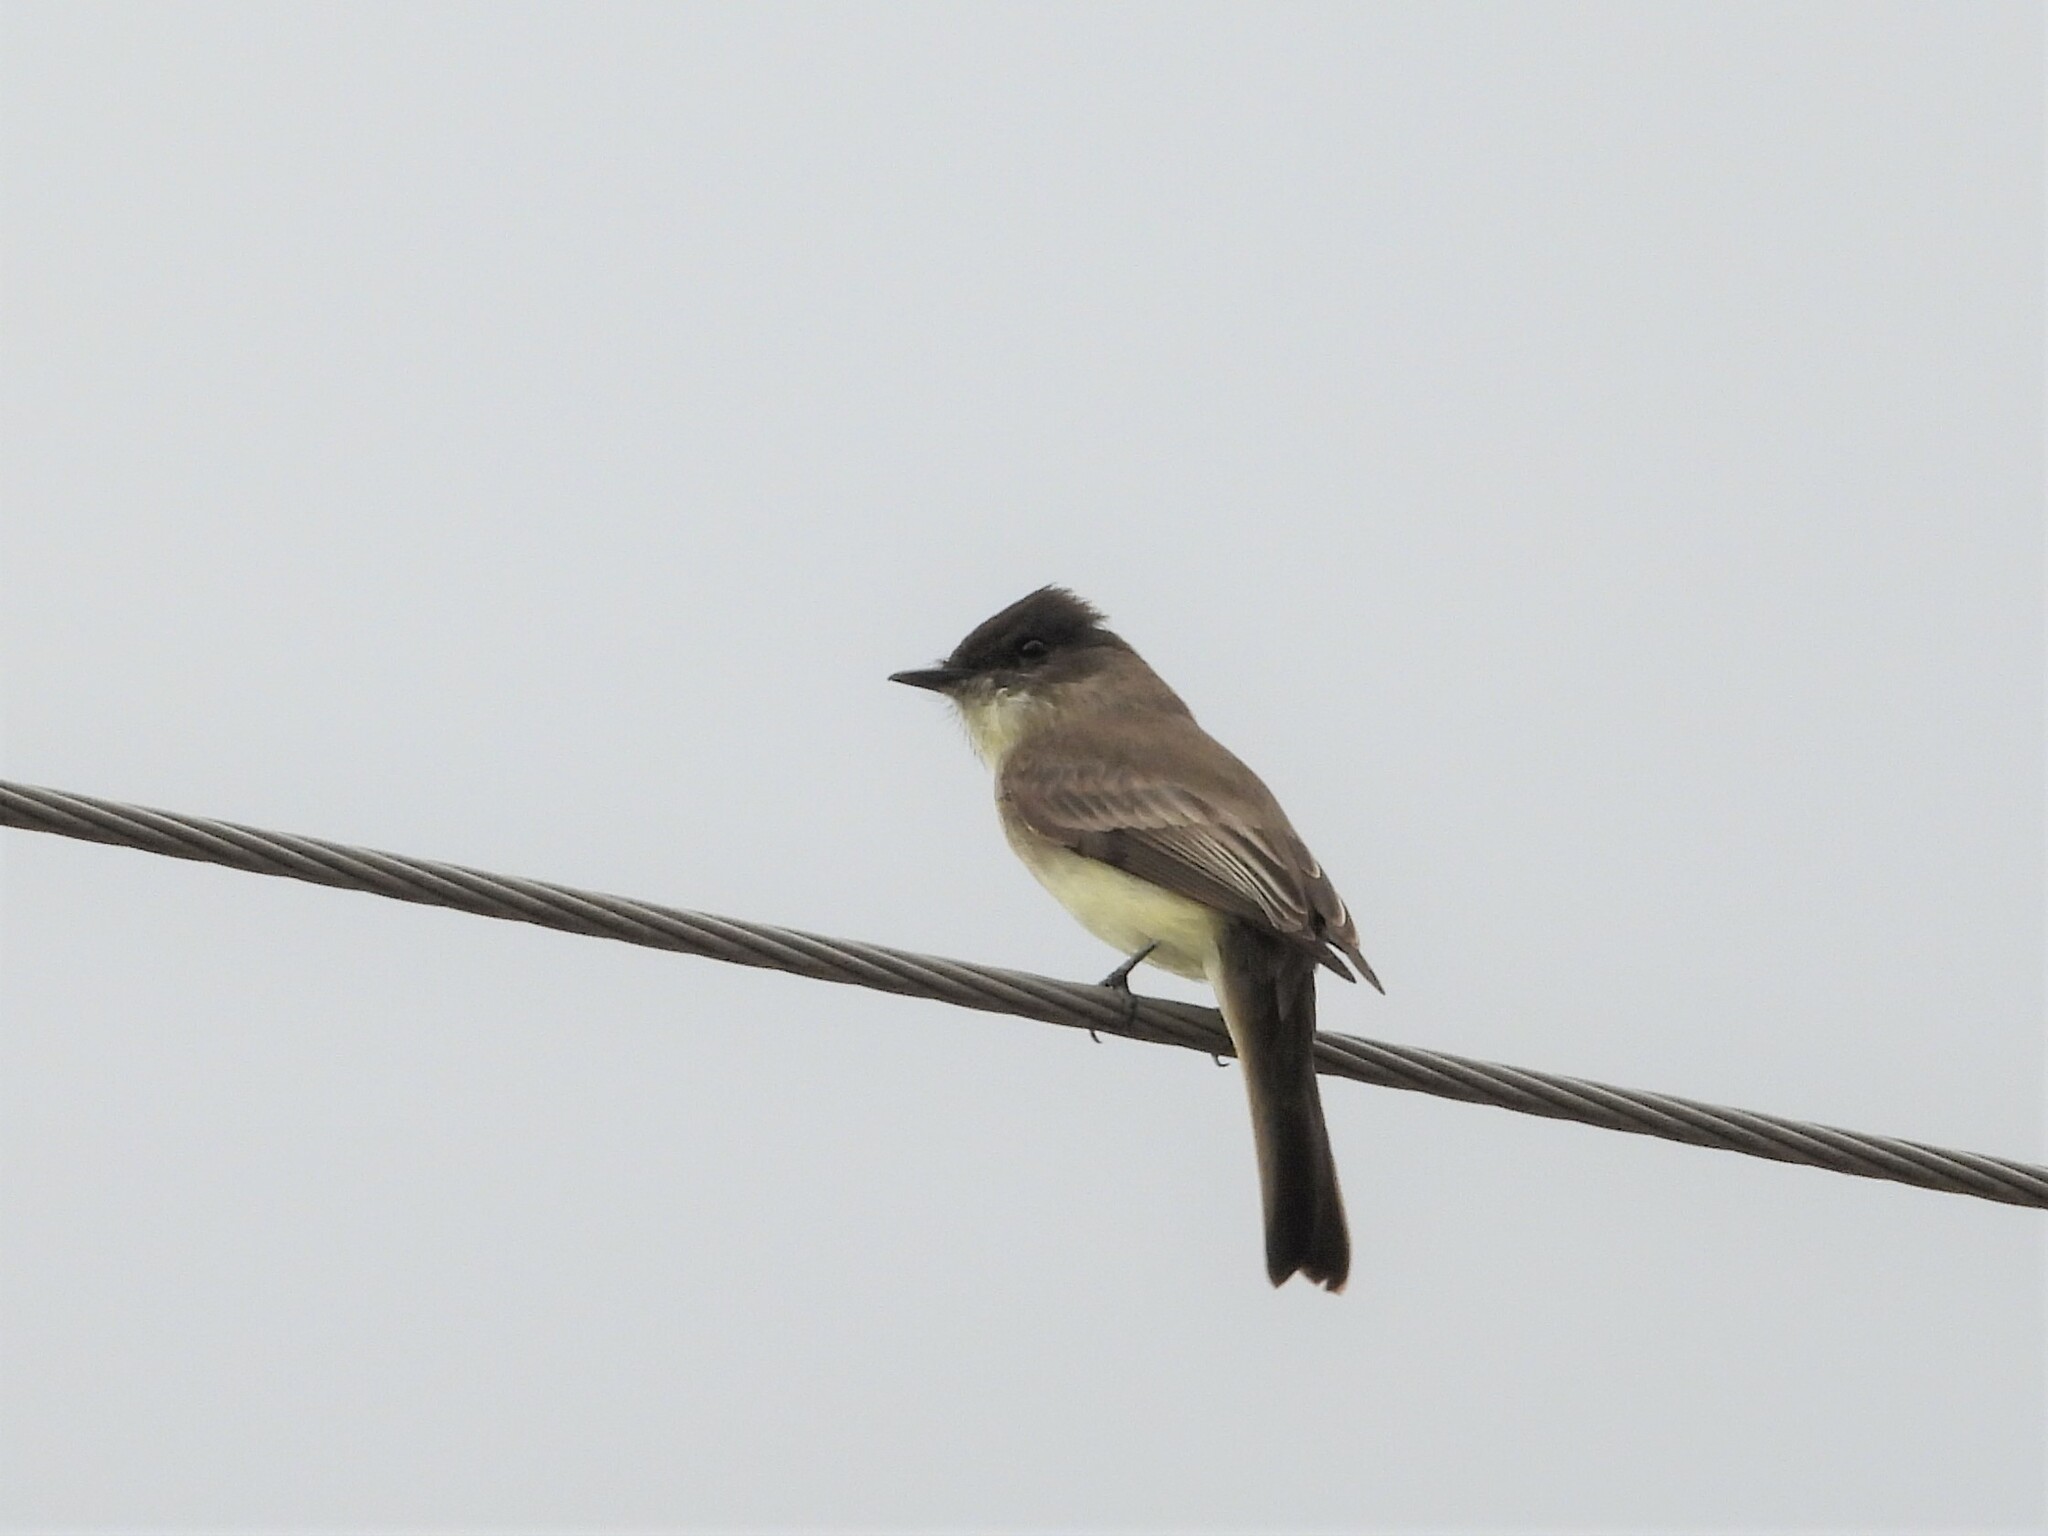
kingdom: Animalia
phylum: Chordata
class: Aves
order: Passeriformes
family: Tyrannidae
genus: Sayornis
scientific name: Sayornis phoebe
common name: Eastern phoebe
